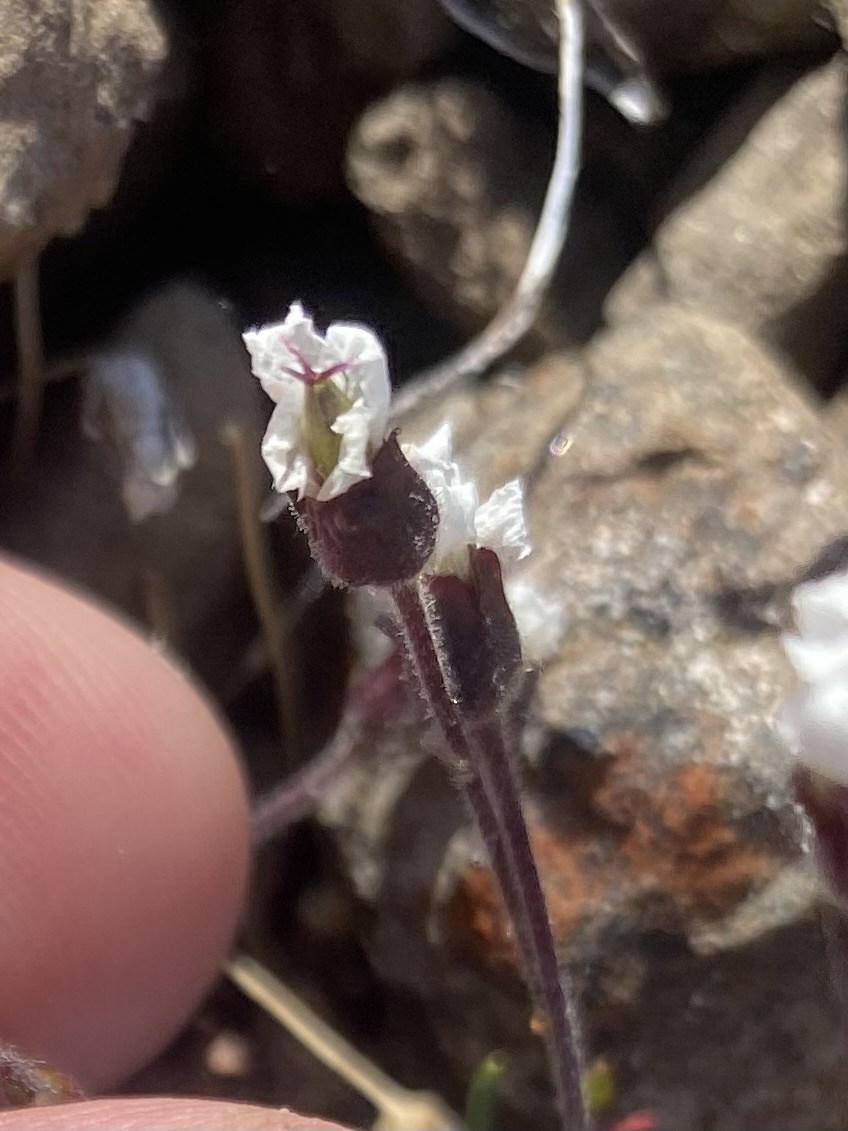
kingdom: Plantae
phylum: Tracheophyta
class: Magnoliopsida
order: Caryophyllales
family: Caryophyllaceae
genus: Cherleria
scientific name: Cherleria arctica
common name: Arctic sandwort
